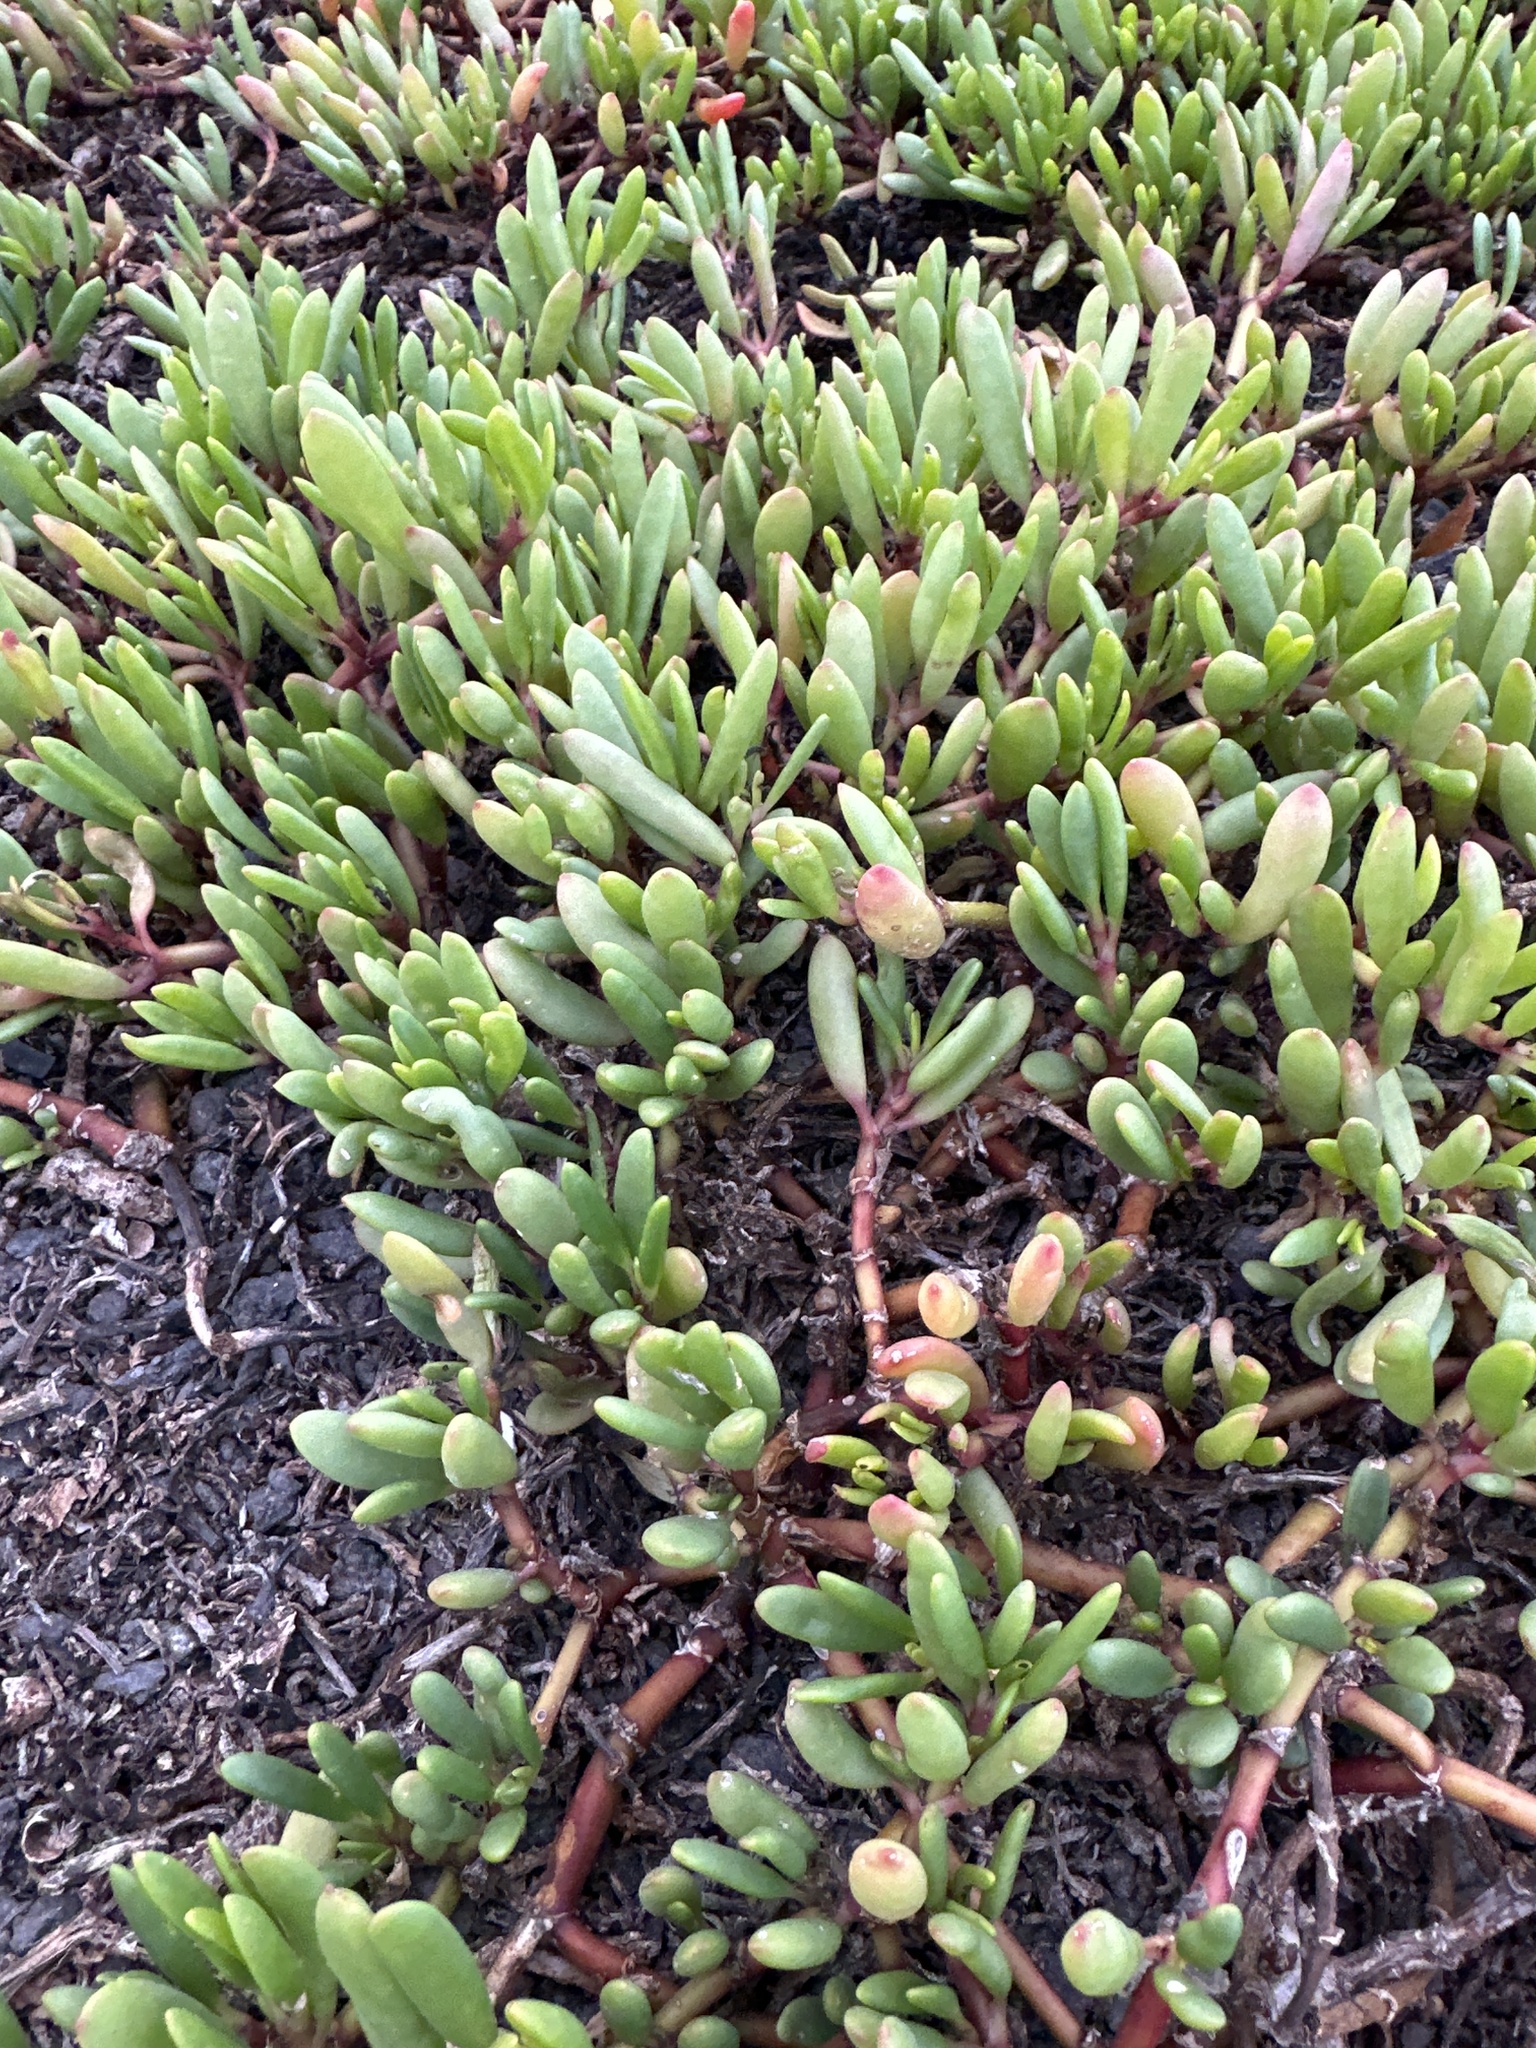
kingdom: Plantae
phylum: Tracheophyta
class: Magnoliopsida
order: Caryophyllales
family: Aizoaceae
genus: Sesuvium
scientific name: Sesuvium portulacastrum
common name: Sea-purslane
